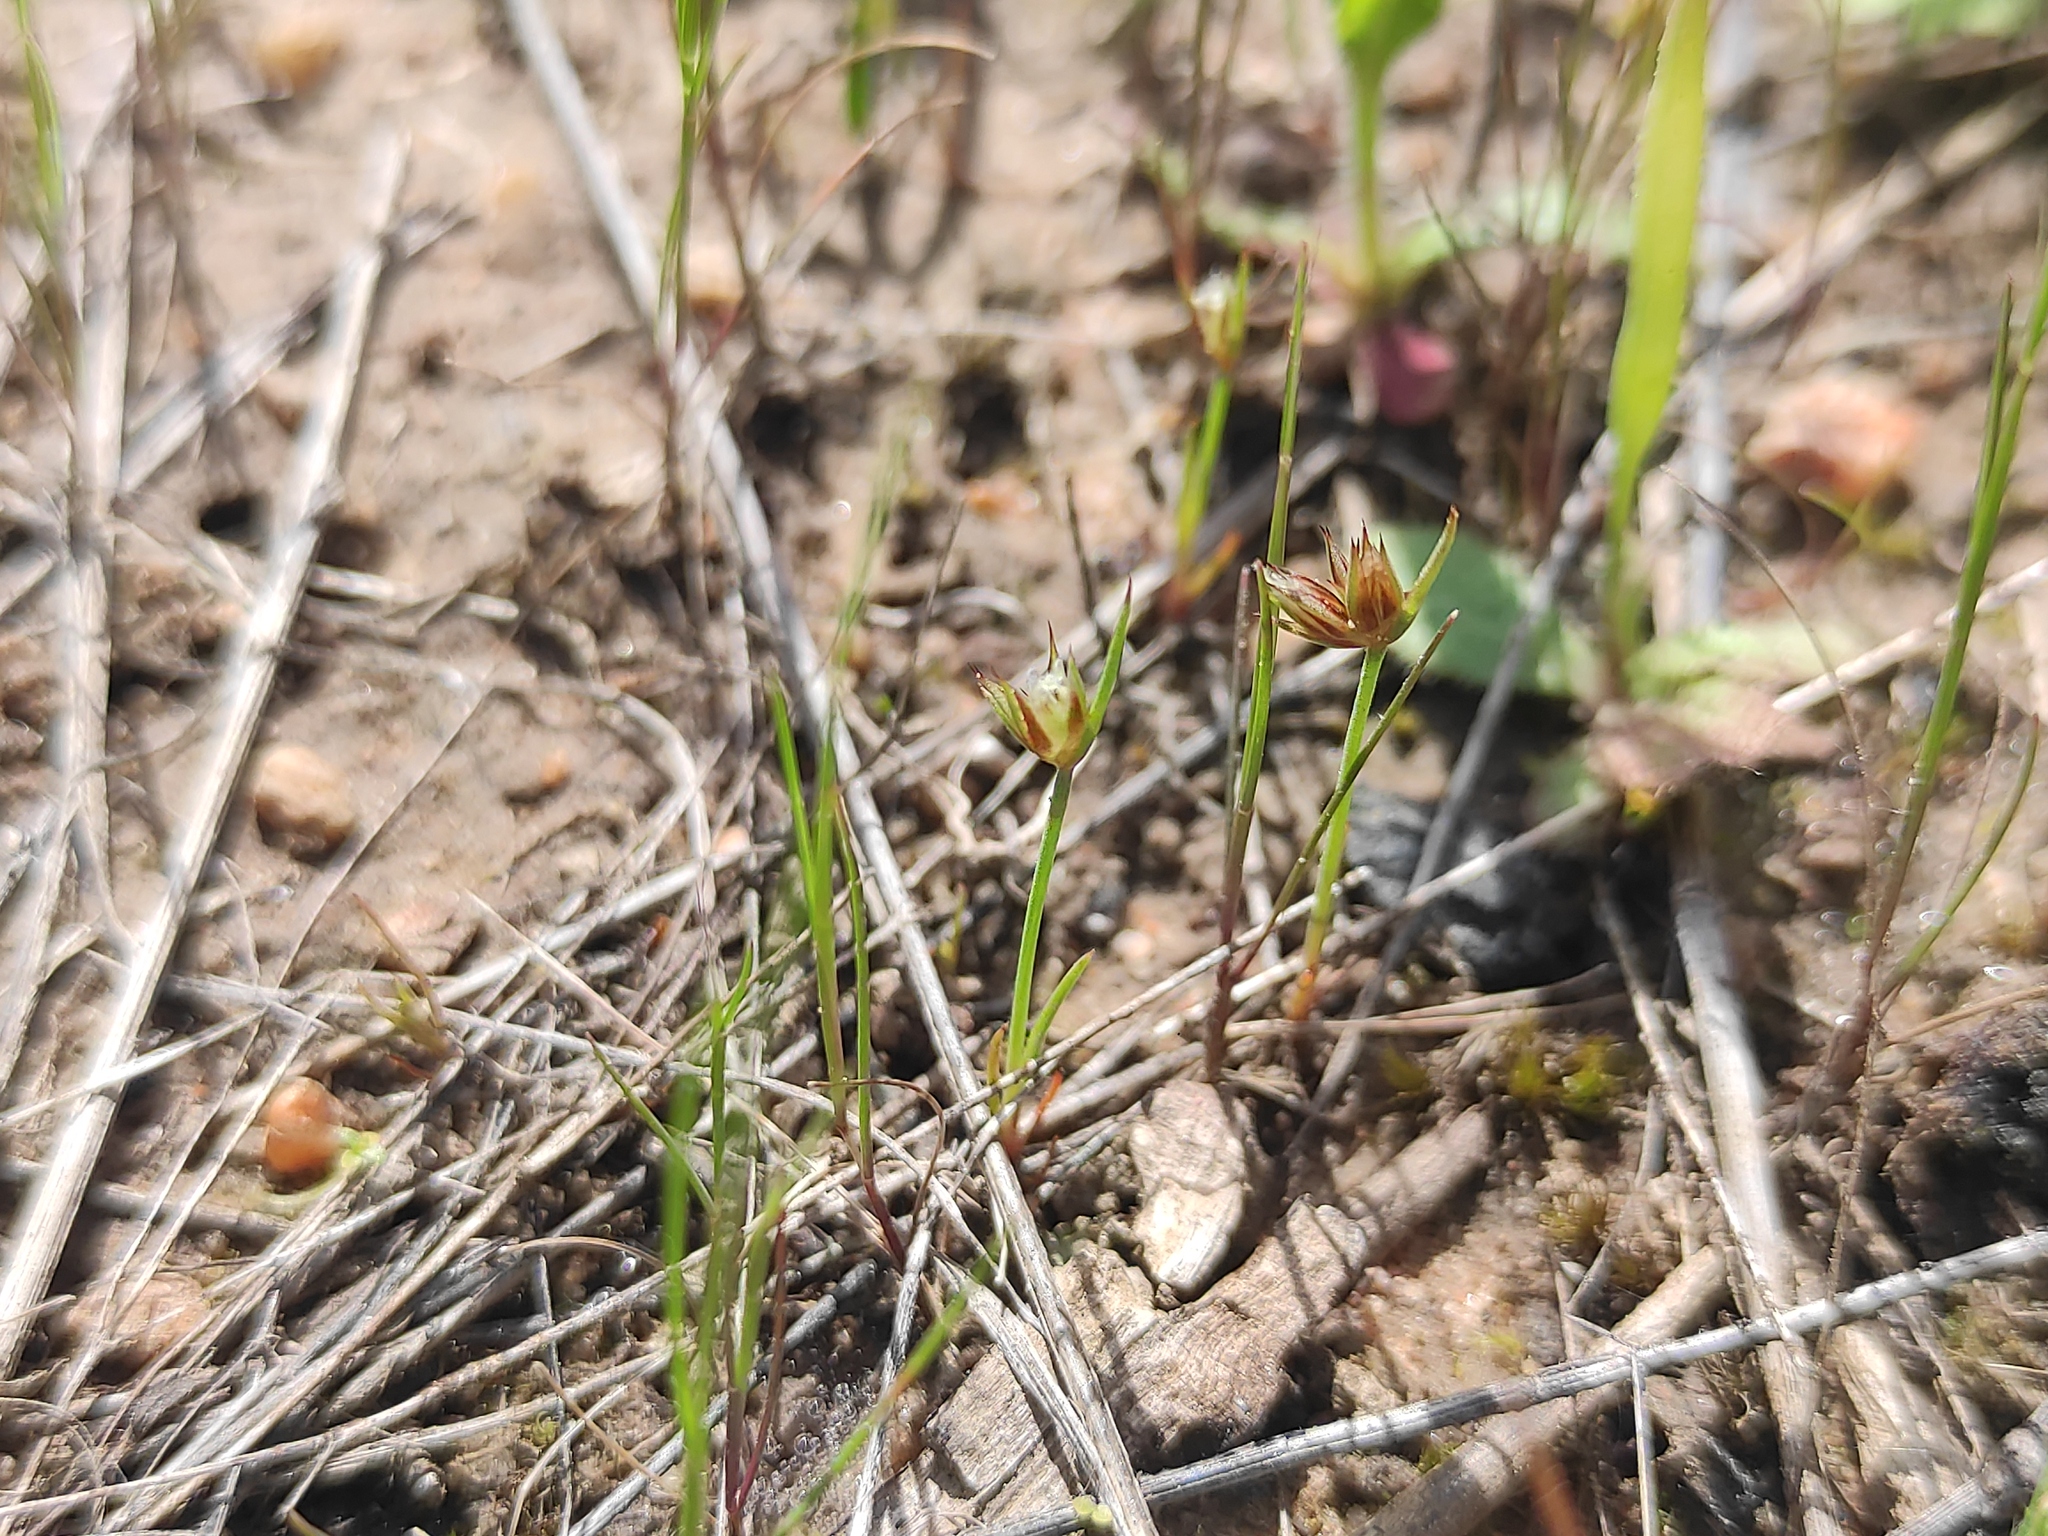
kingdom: Plantae
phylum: Tracheophyta
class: Liliopsida
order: Poales
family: Juncaceae
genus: Juncus
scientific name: Juncus capitatus
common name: Dwarf rush
